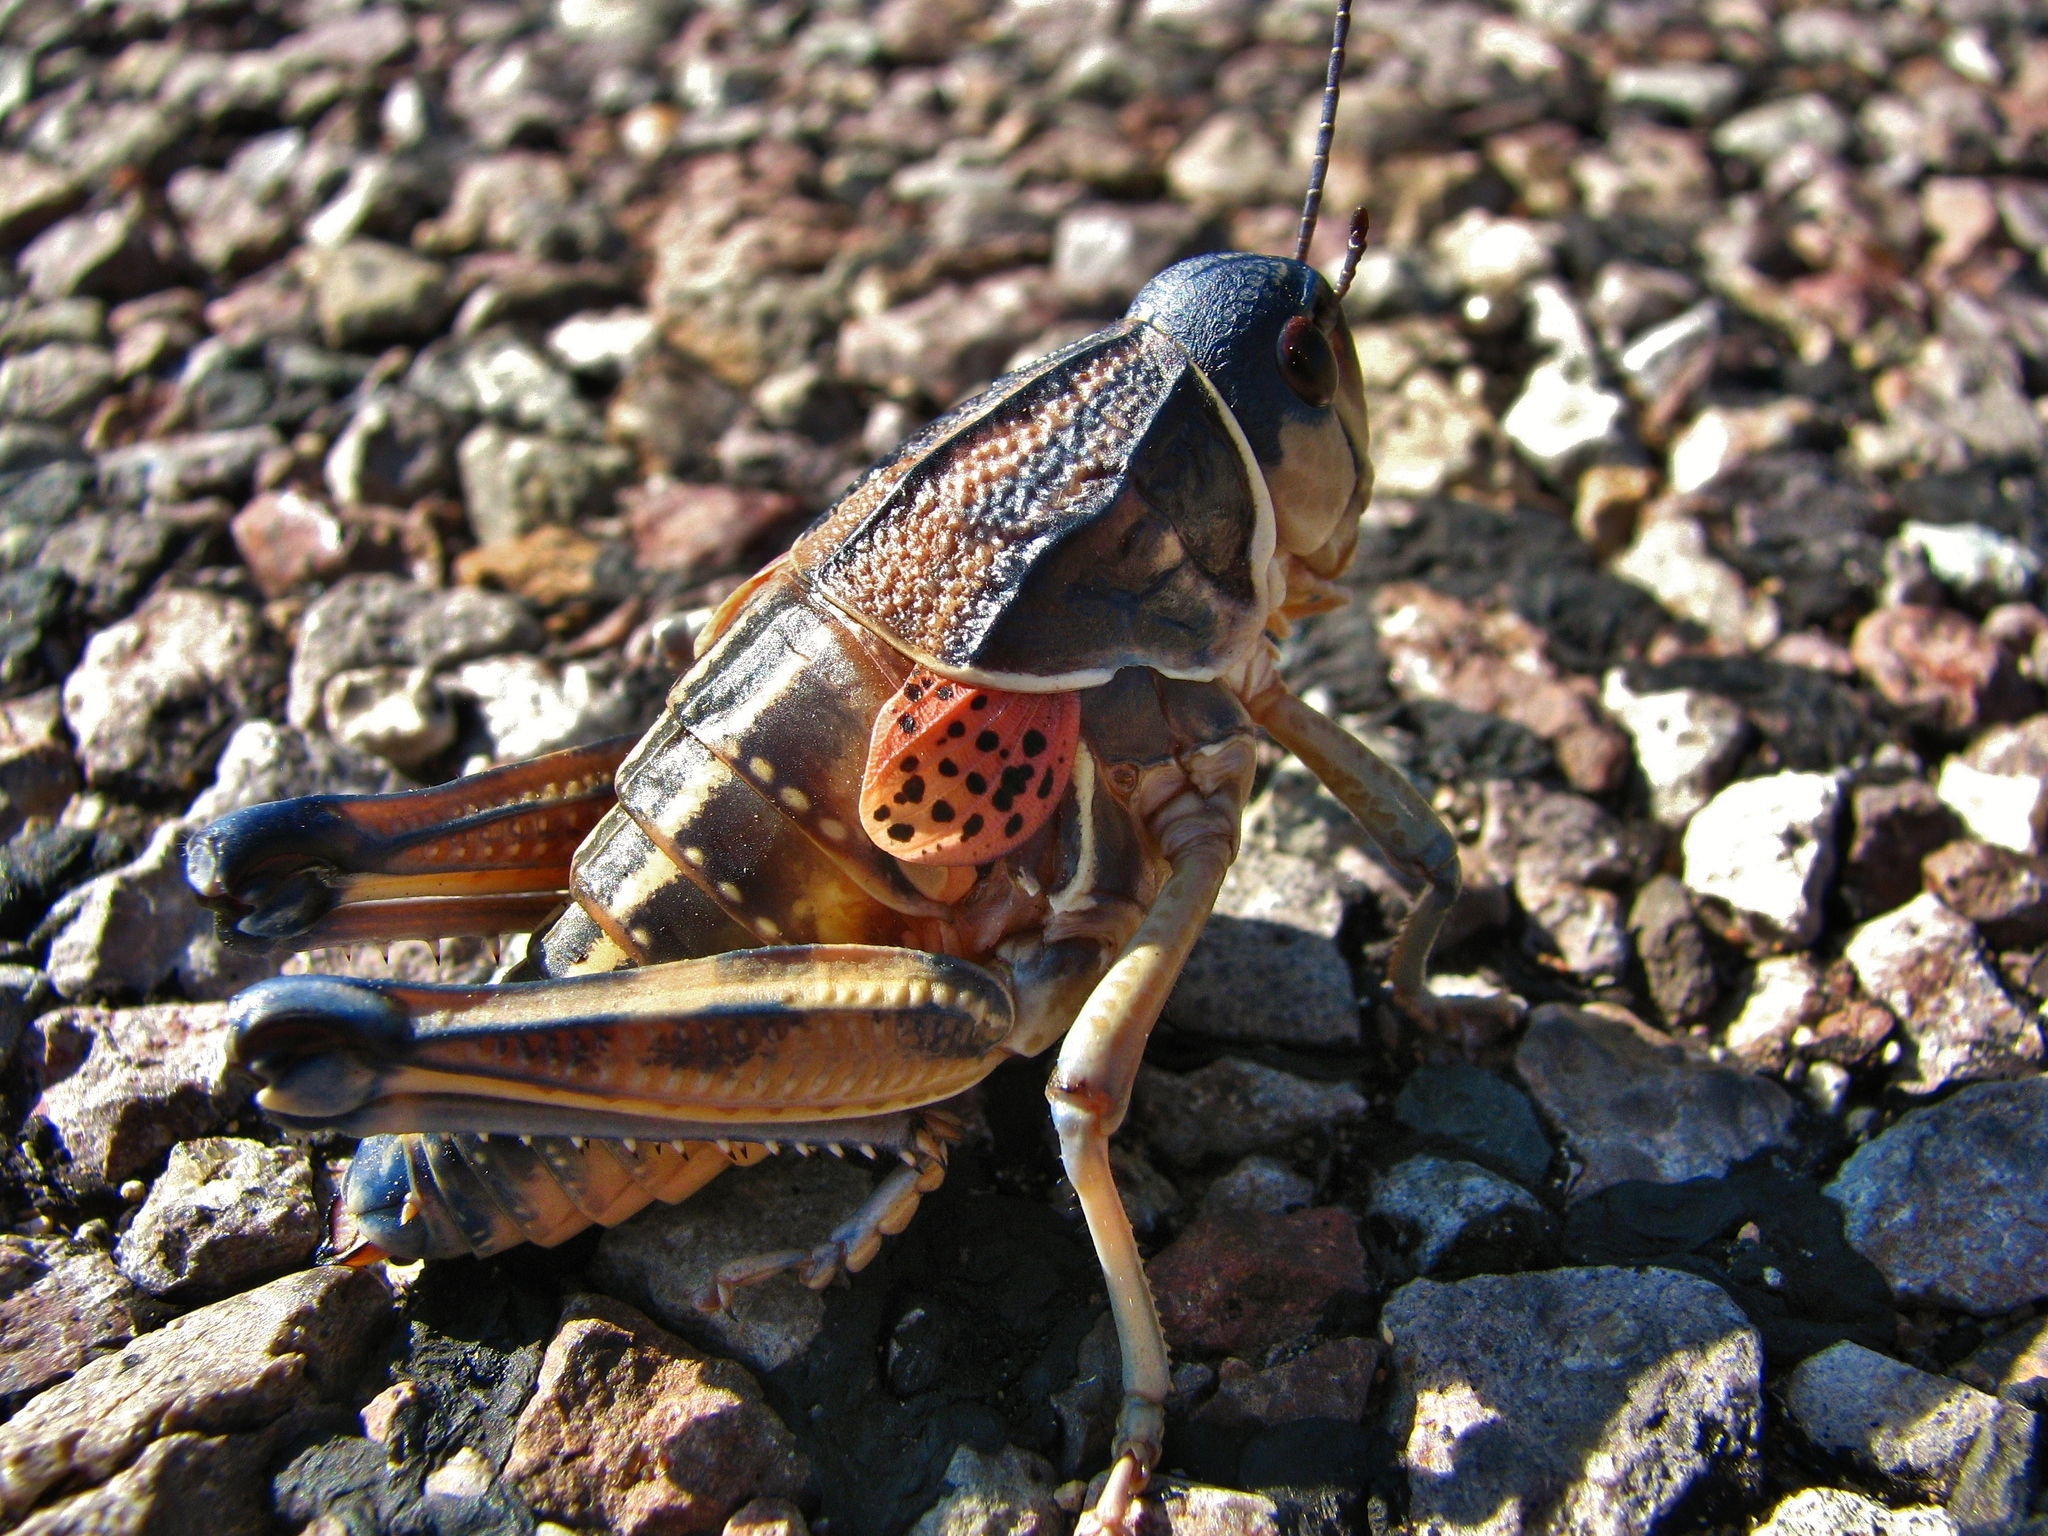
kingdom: Animalia
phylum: Arthropoda
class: Insecta
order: Orthoptera
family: Romaleidae
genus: Brachystola
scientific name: Brachystola magna
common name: Plains lubber grasshopper
